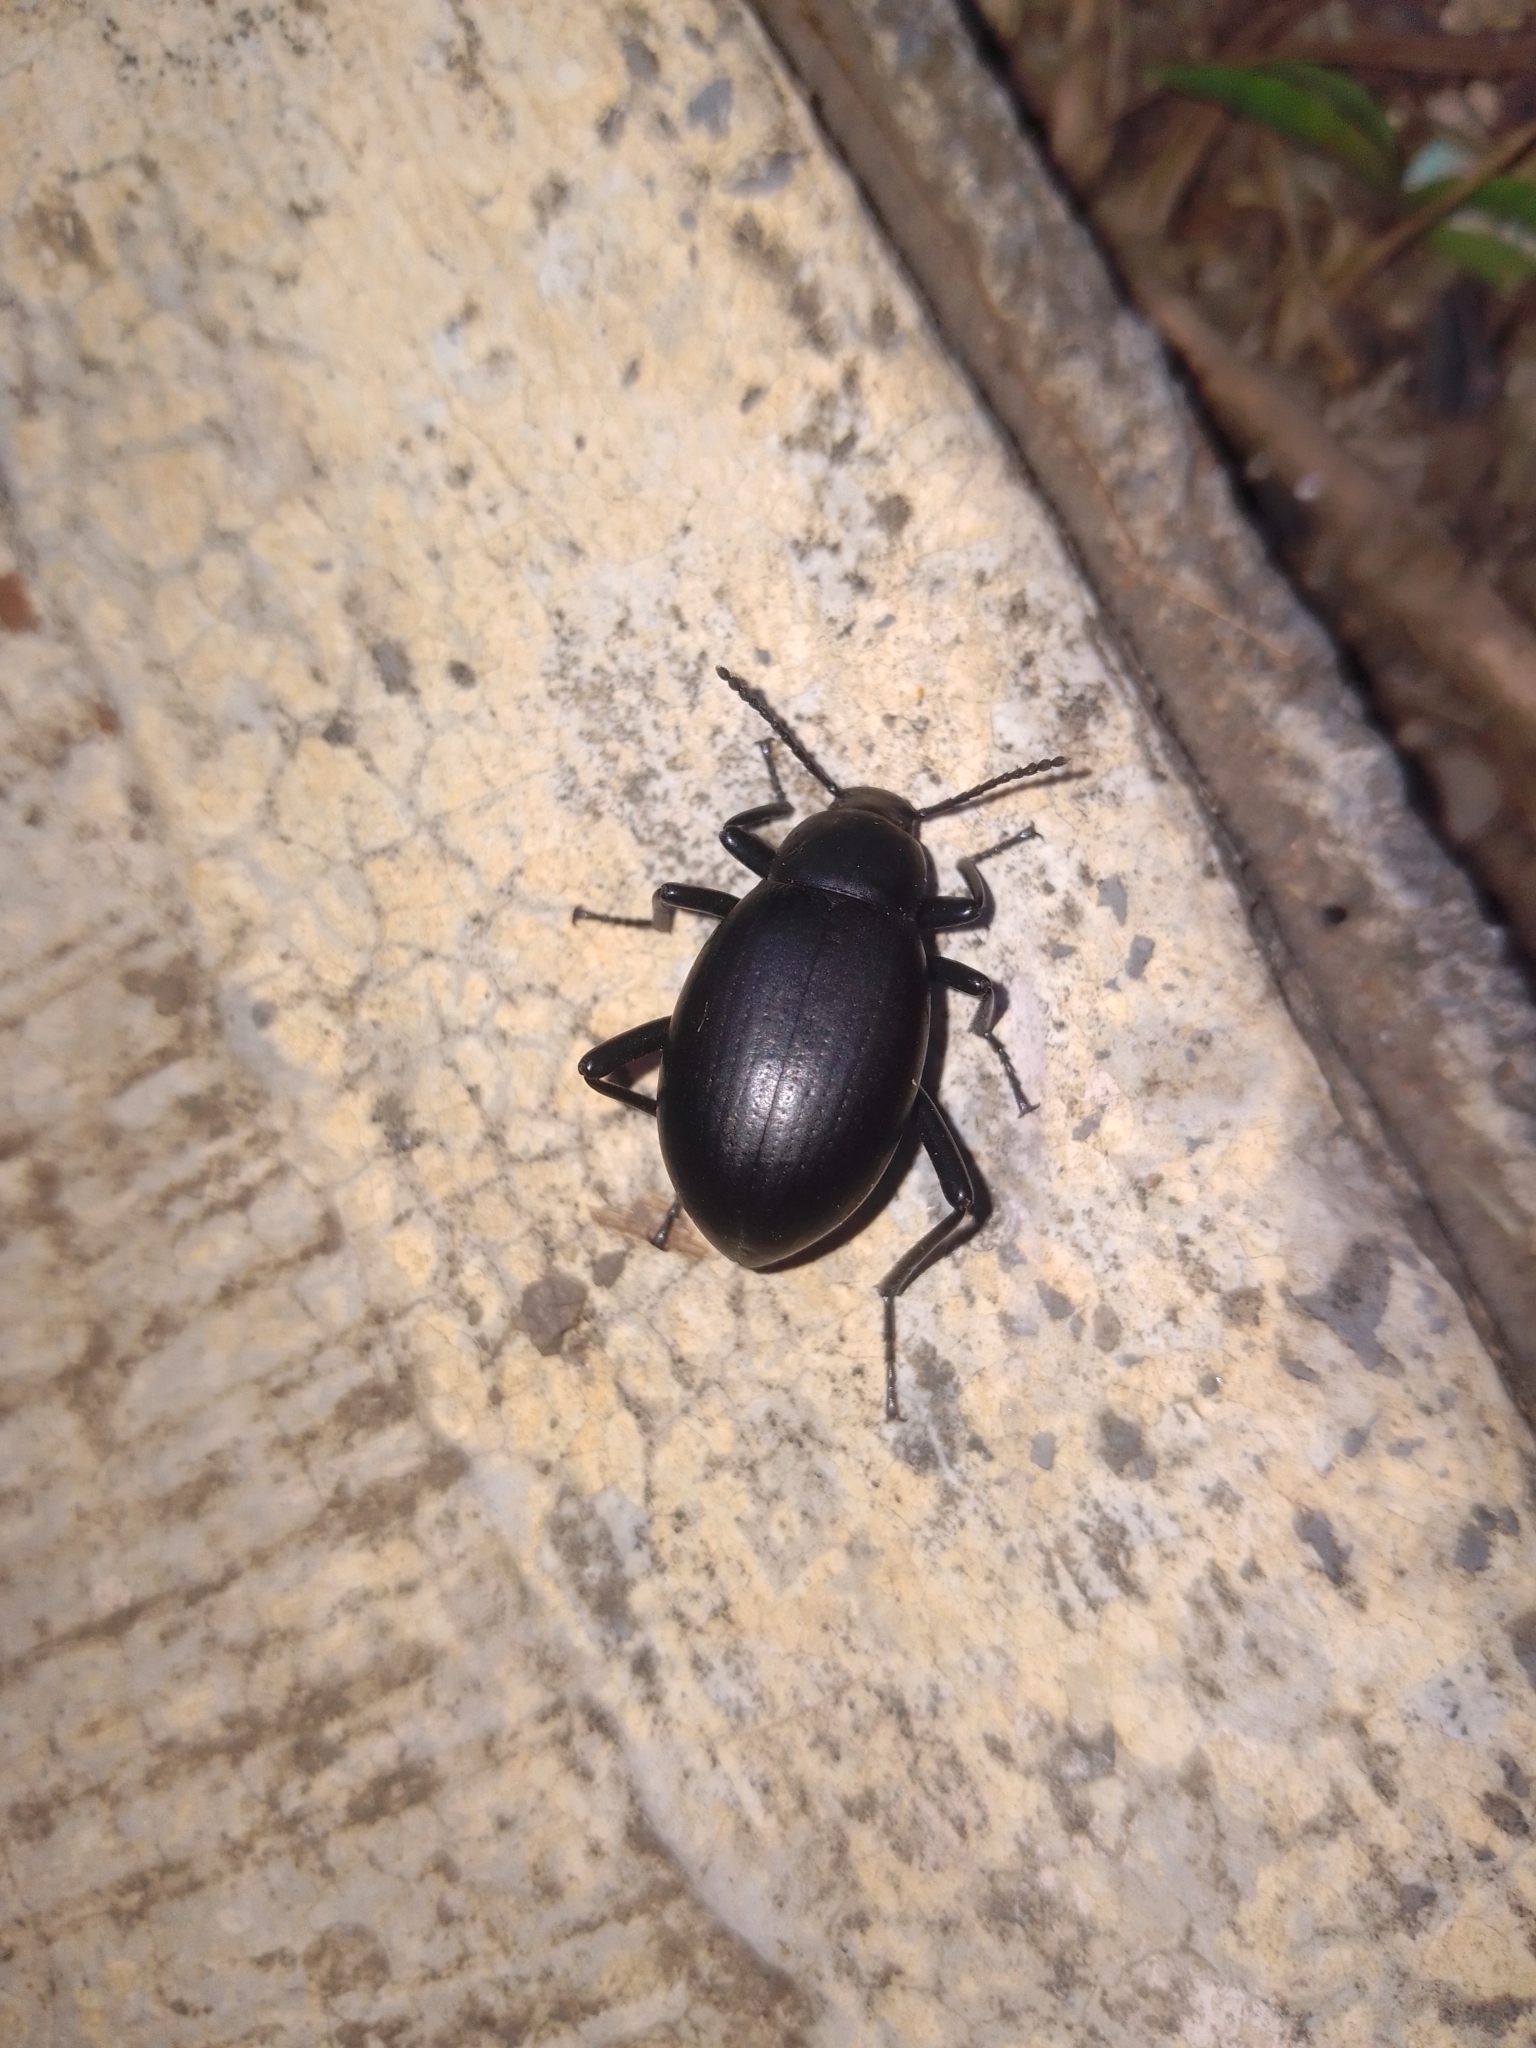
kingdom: Animalia
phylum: Arthropoda
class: Insecta
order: Coleoptera
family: Tenebrionidae
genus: Eleodes
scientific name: Eleodes goryi
